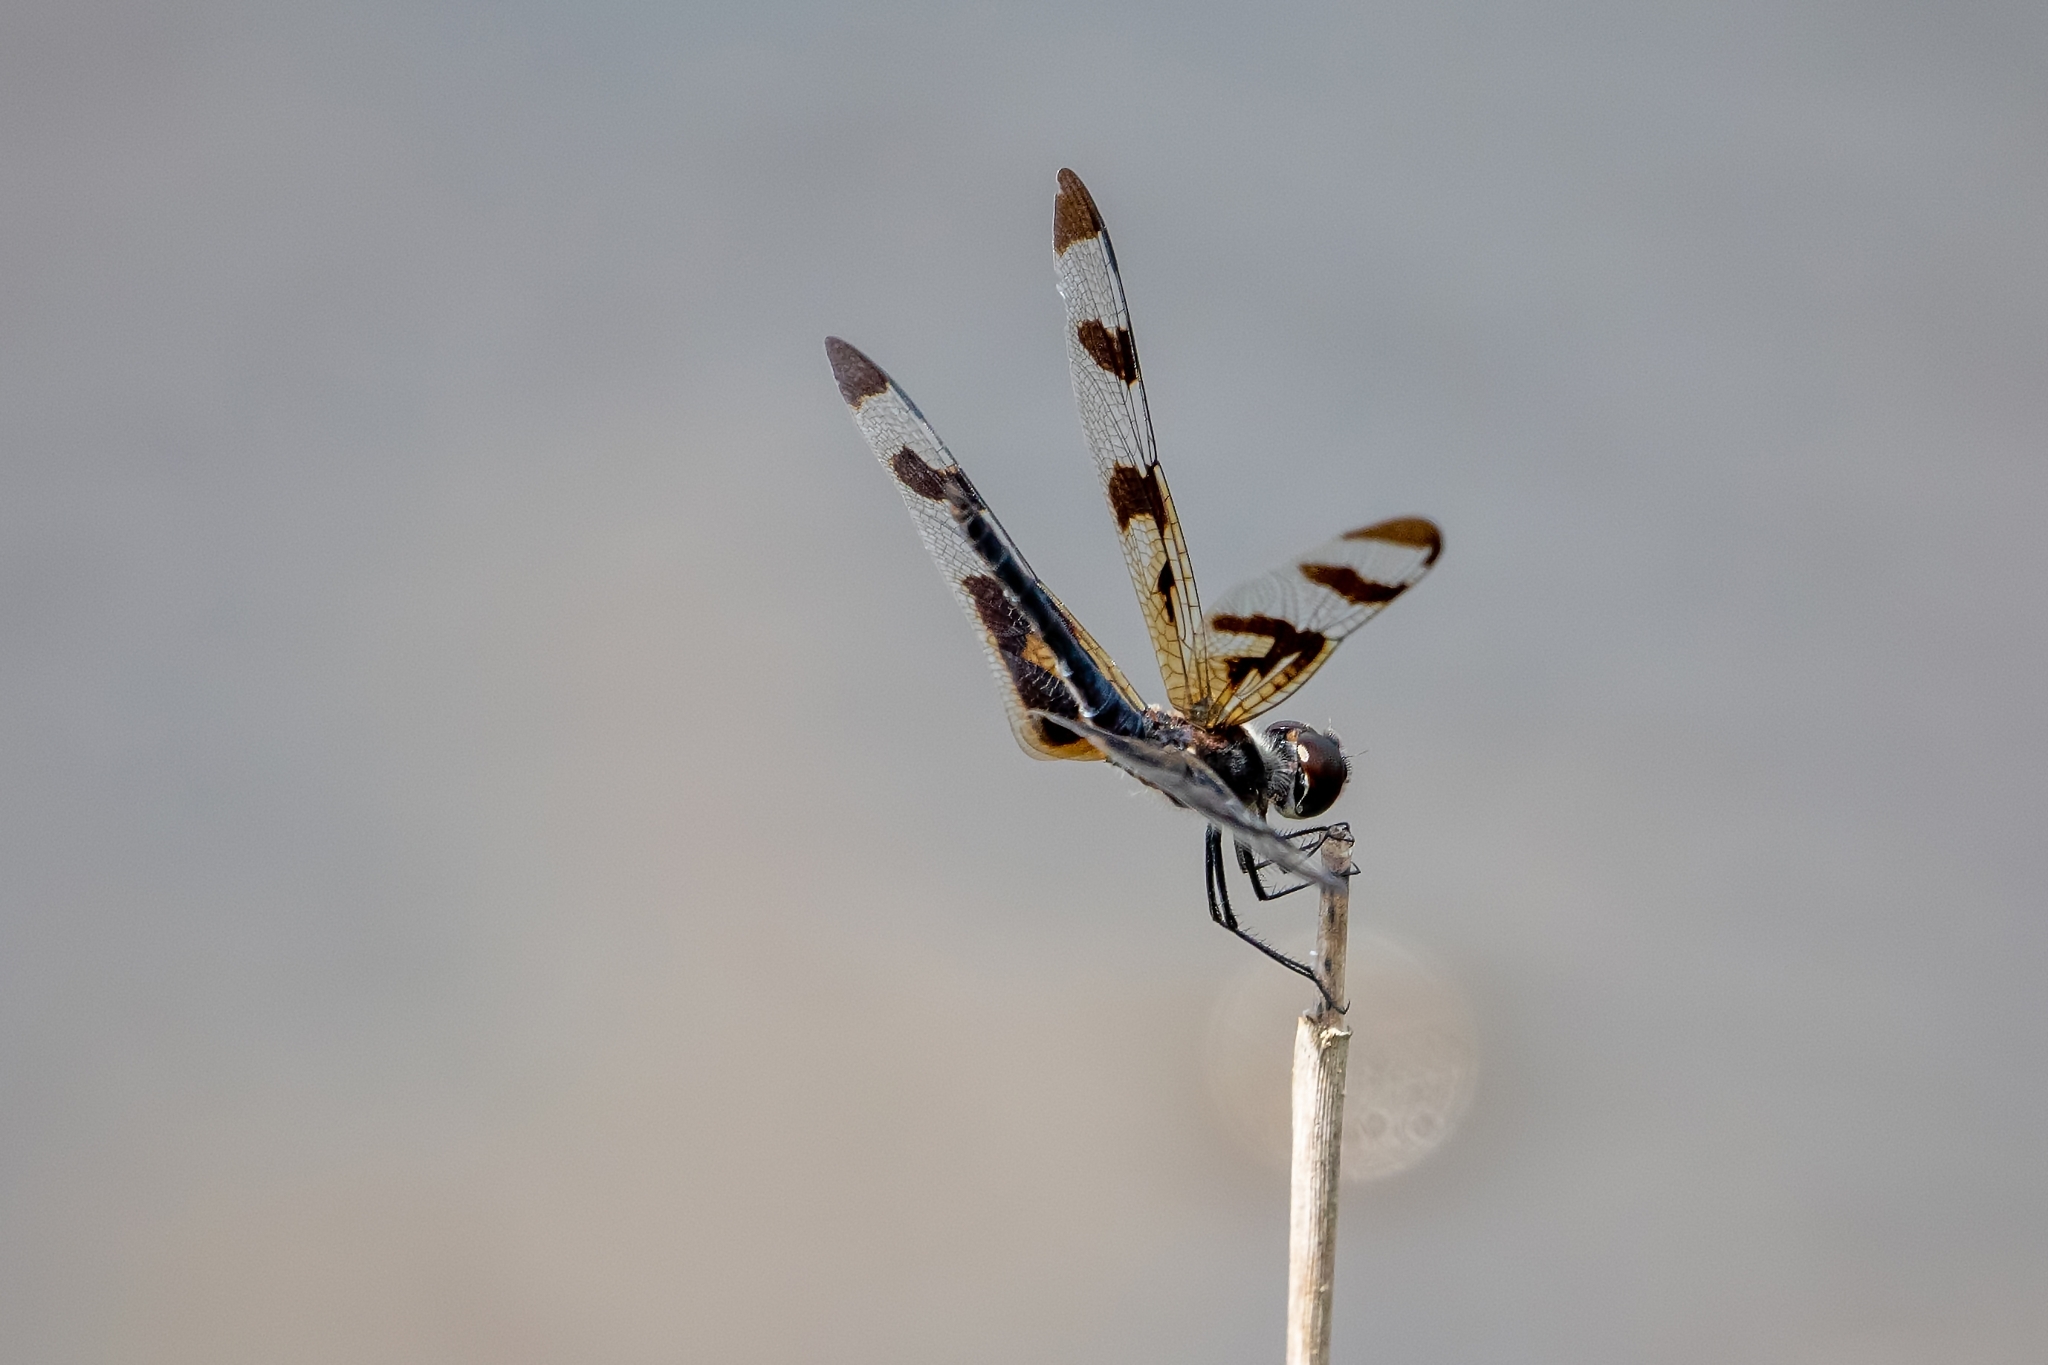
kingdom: Animalia
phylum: Arthropoda
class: Insecta
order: Odonata
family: Libellulidae
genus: Celithemis
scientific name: Celithemis fasciata
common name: Banded pennant
